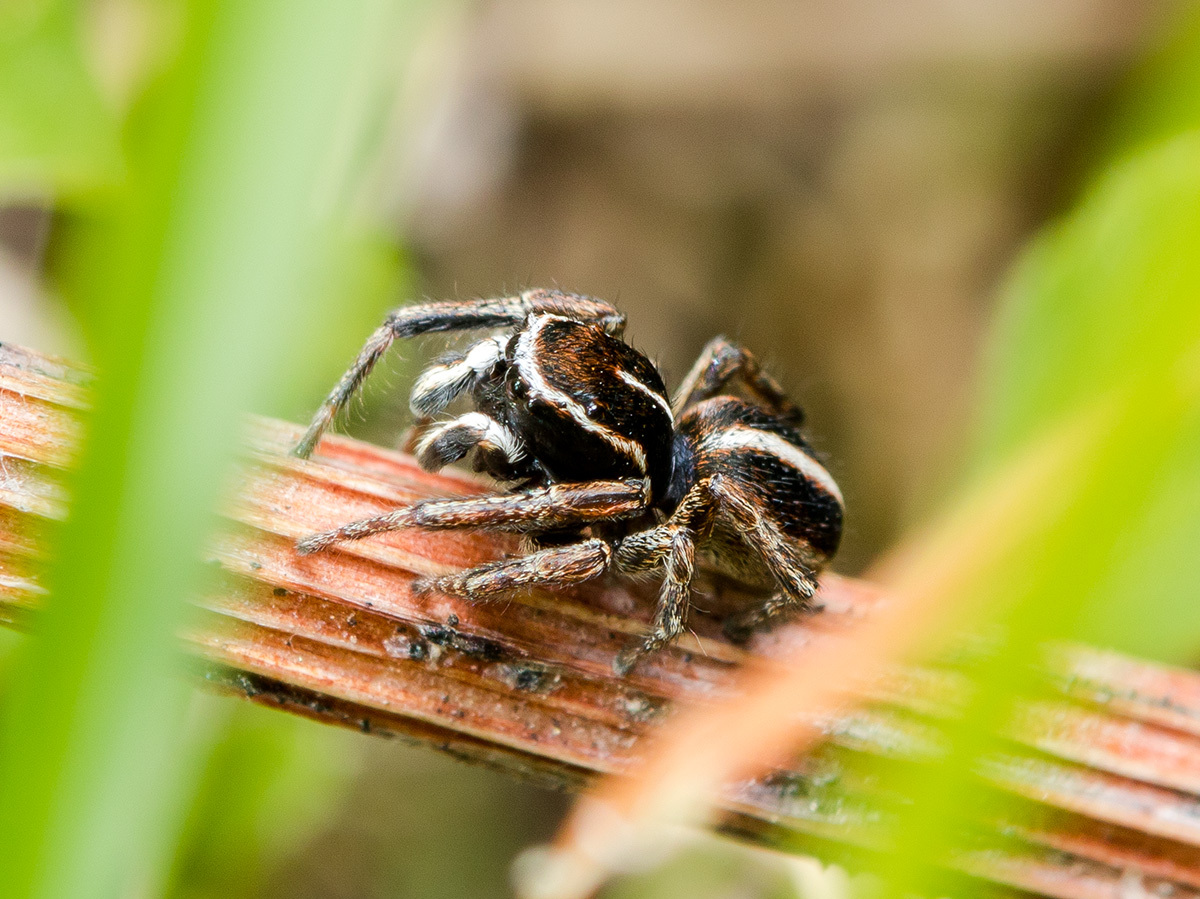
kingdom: Animalia
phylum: Arthropoda
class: Arachnida
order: Araneae
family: Salticidae
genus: Attulus
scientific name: Attulus talgarensis
